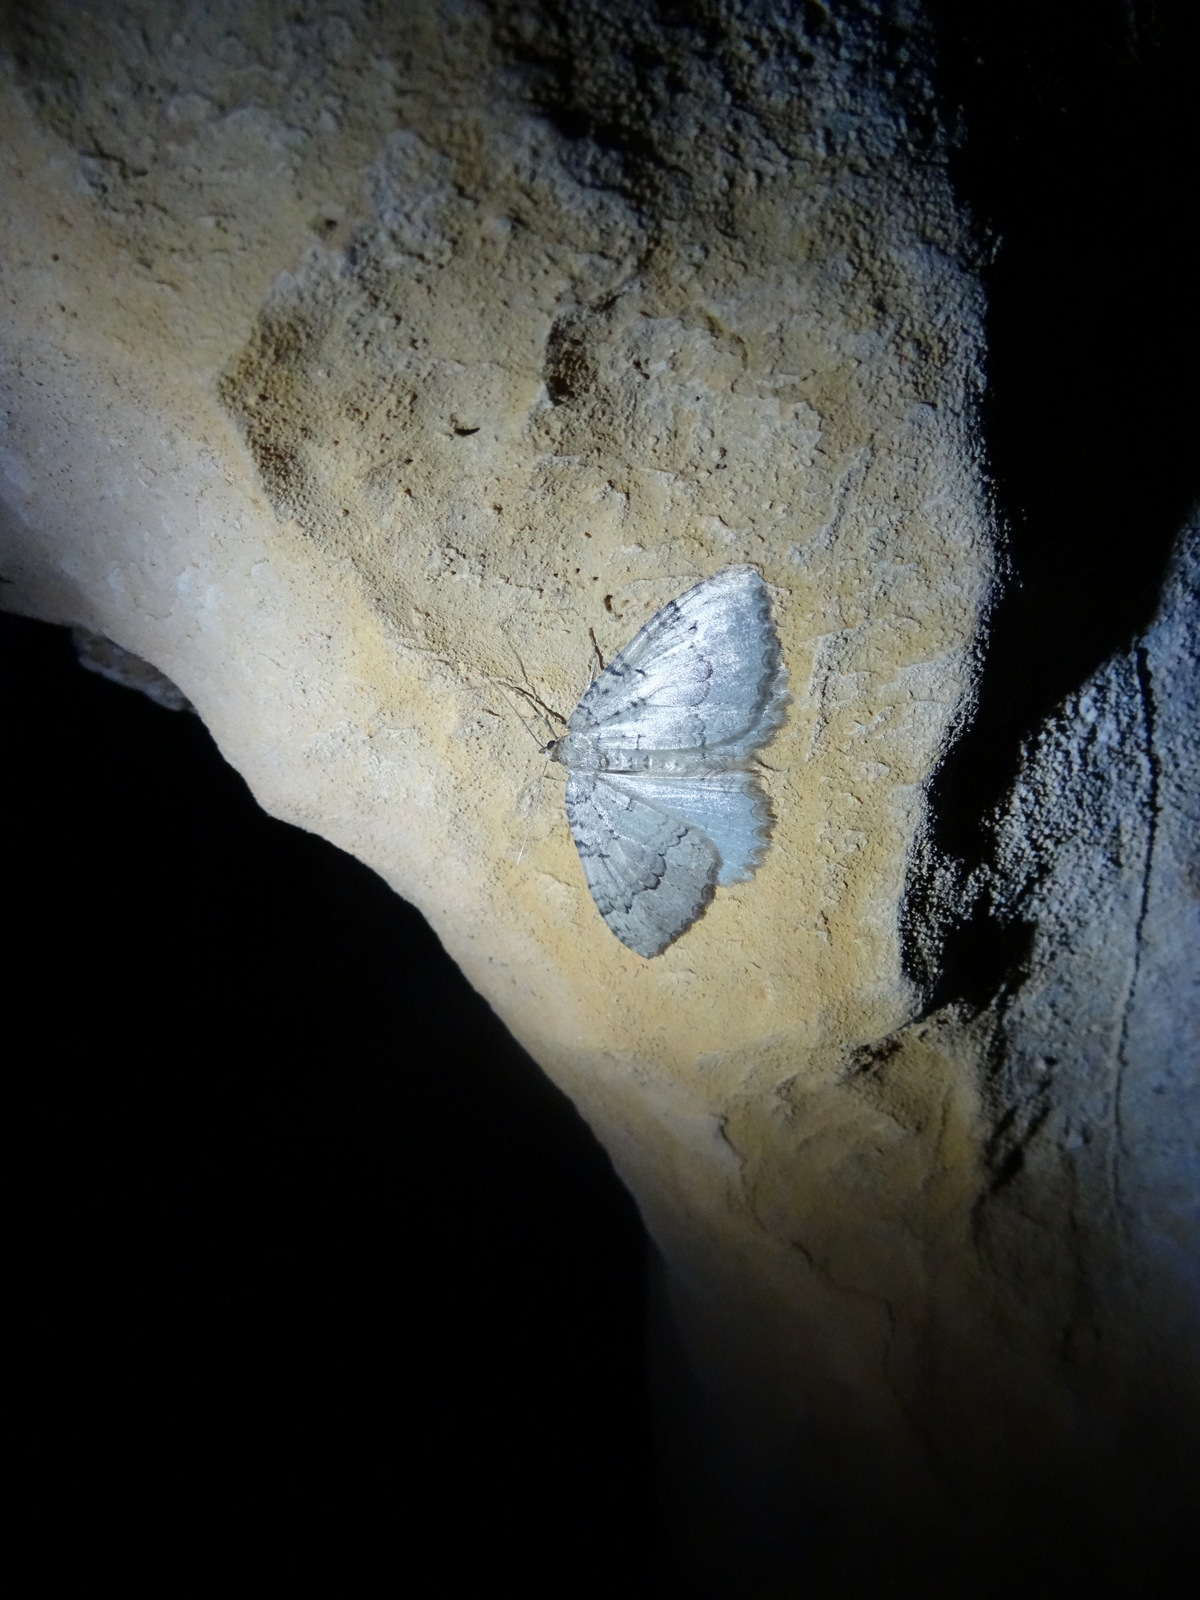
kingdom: Animalia
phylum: Arthropoda
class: Insecta
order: Lepidoptera
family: Geometridae
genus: Triphosa
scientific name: Triphosa tauteli
